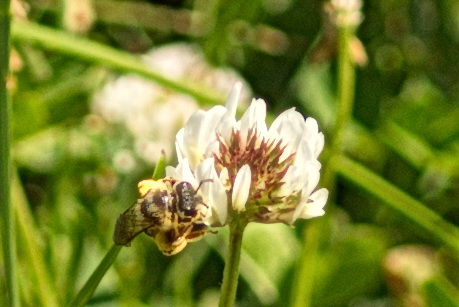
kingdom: Animalia
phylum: Arthropoda
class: Insecta
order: Hymenoptera
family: Halictidae
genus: Halictus
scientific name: Halictus rubicundus
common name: Orange-legged furrow bee
